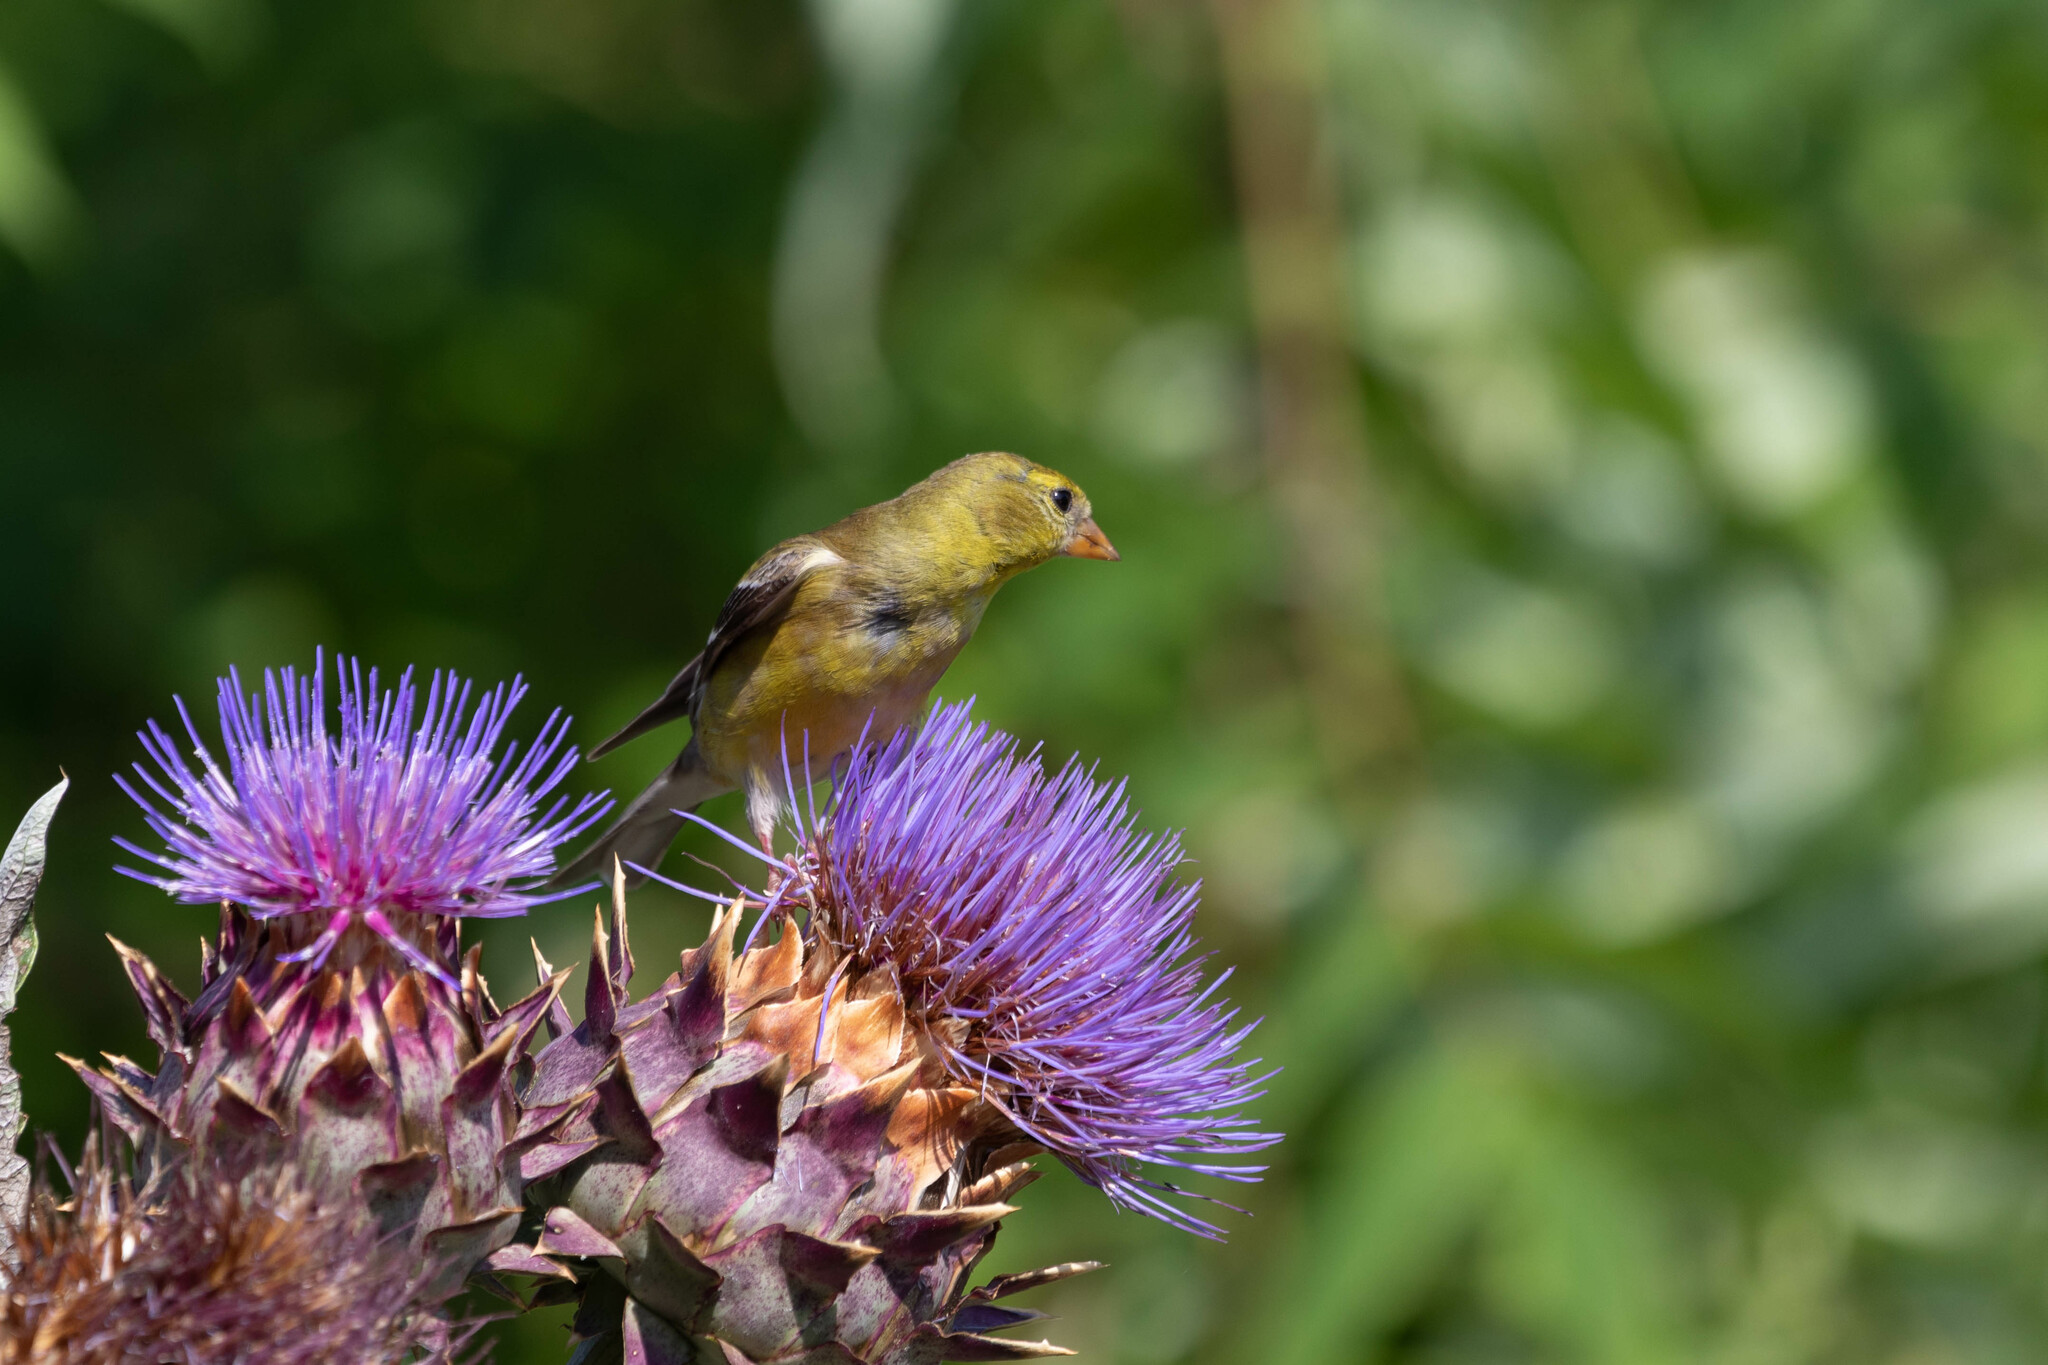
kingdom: Animalia
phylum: Chordata
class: Aves
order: Passeriformes
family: Fringillidae
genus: Spinus
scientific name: Spinus tristis
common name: American goldfinch
